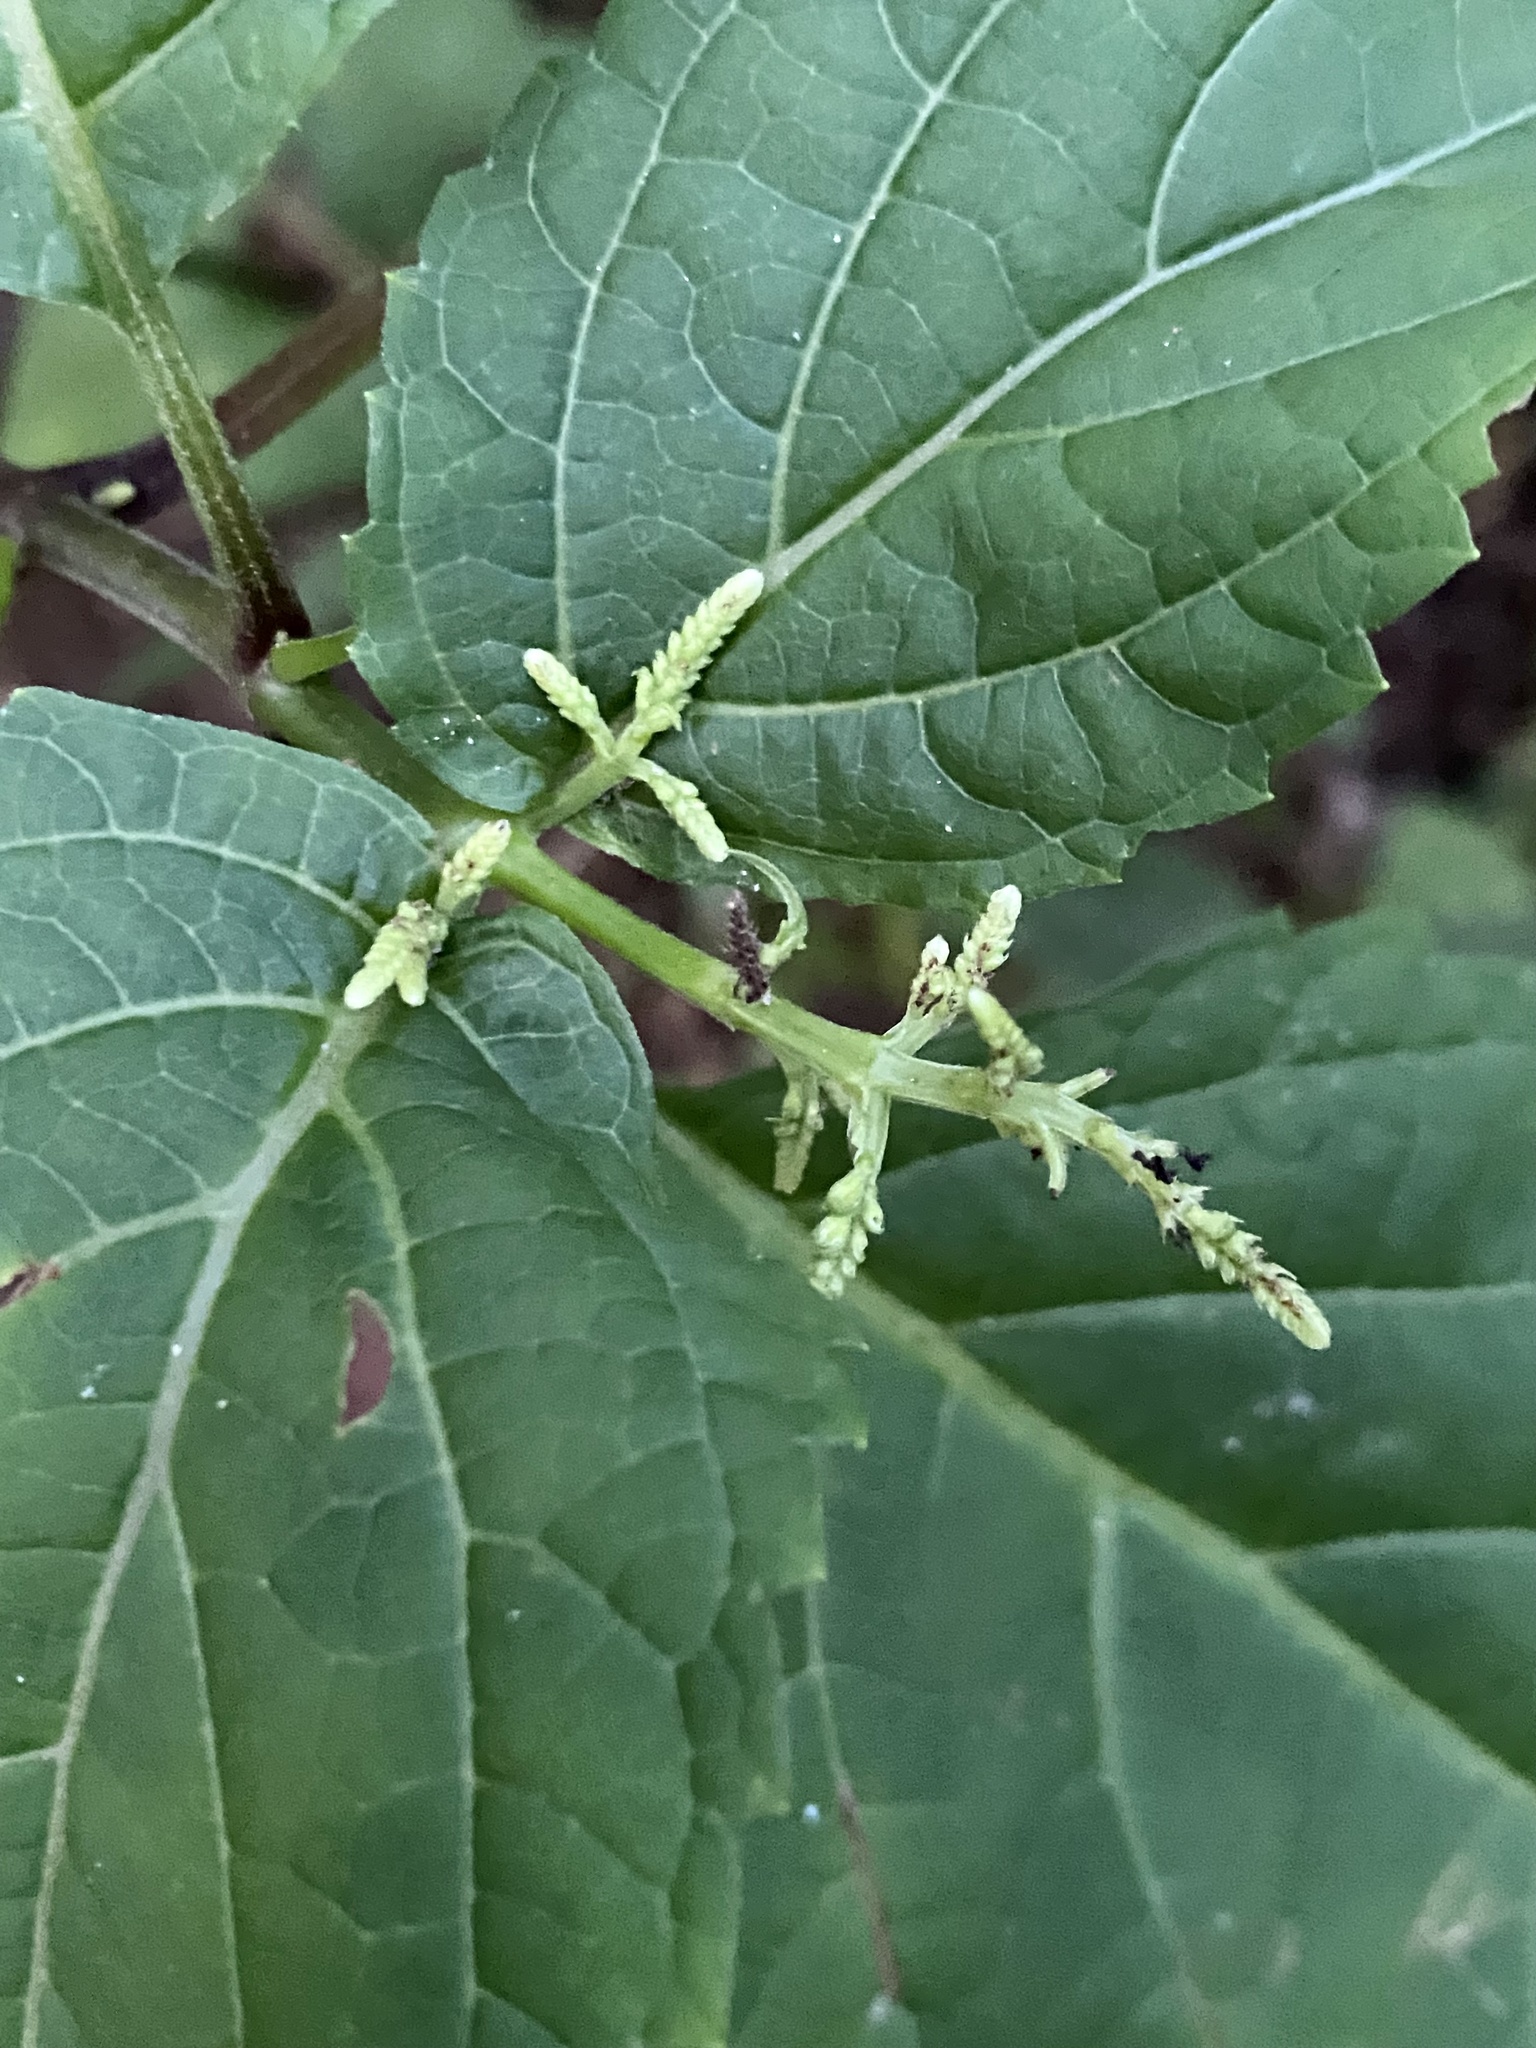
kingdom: Plantae
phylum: Tracheophyta
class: Magnoliopsida
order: Lamiales
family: Lamiaceae
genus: Collinsonia
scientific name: Collinsonia canadensis
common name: Northern horsebalm
